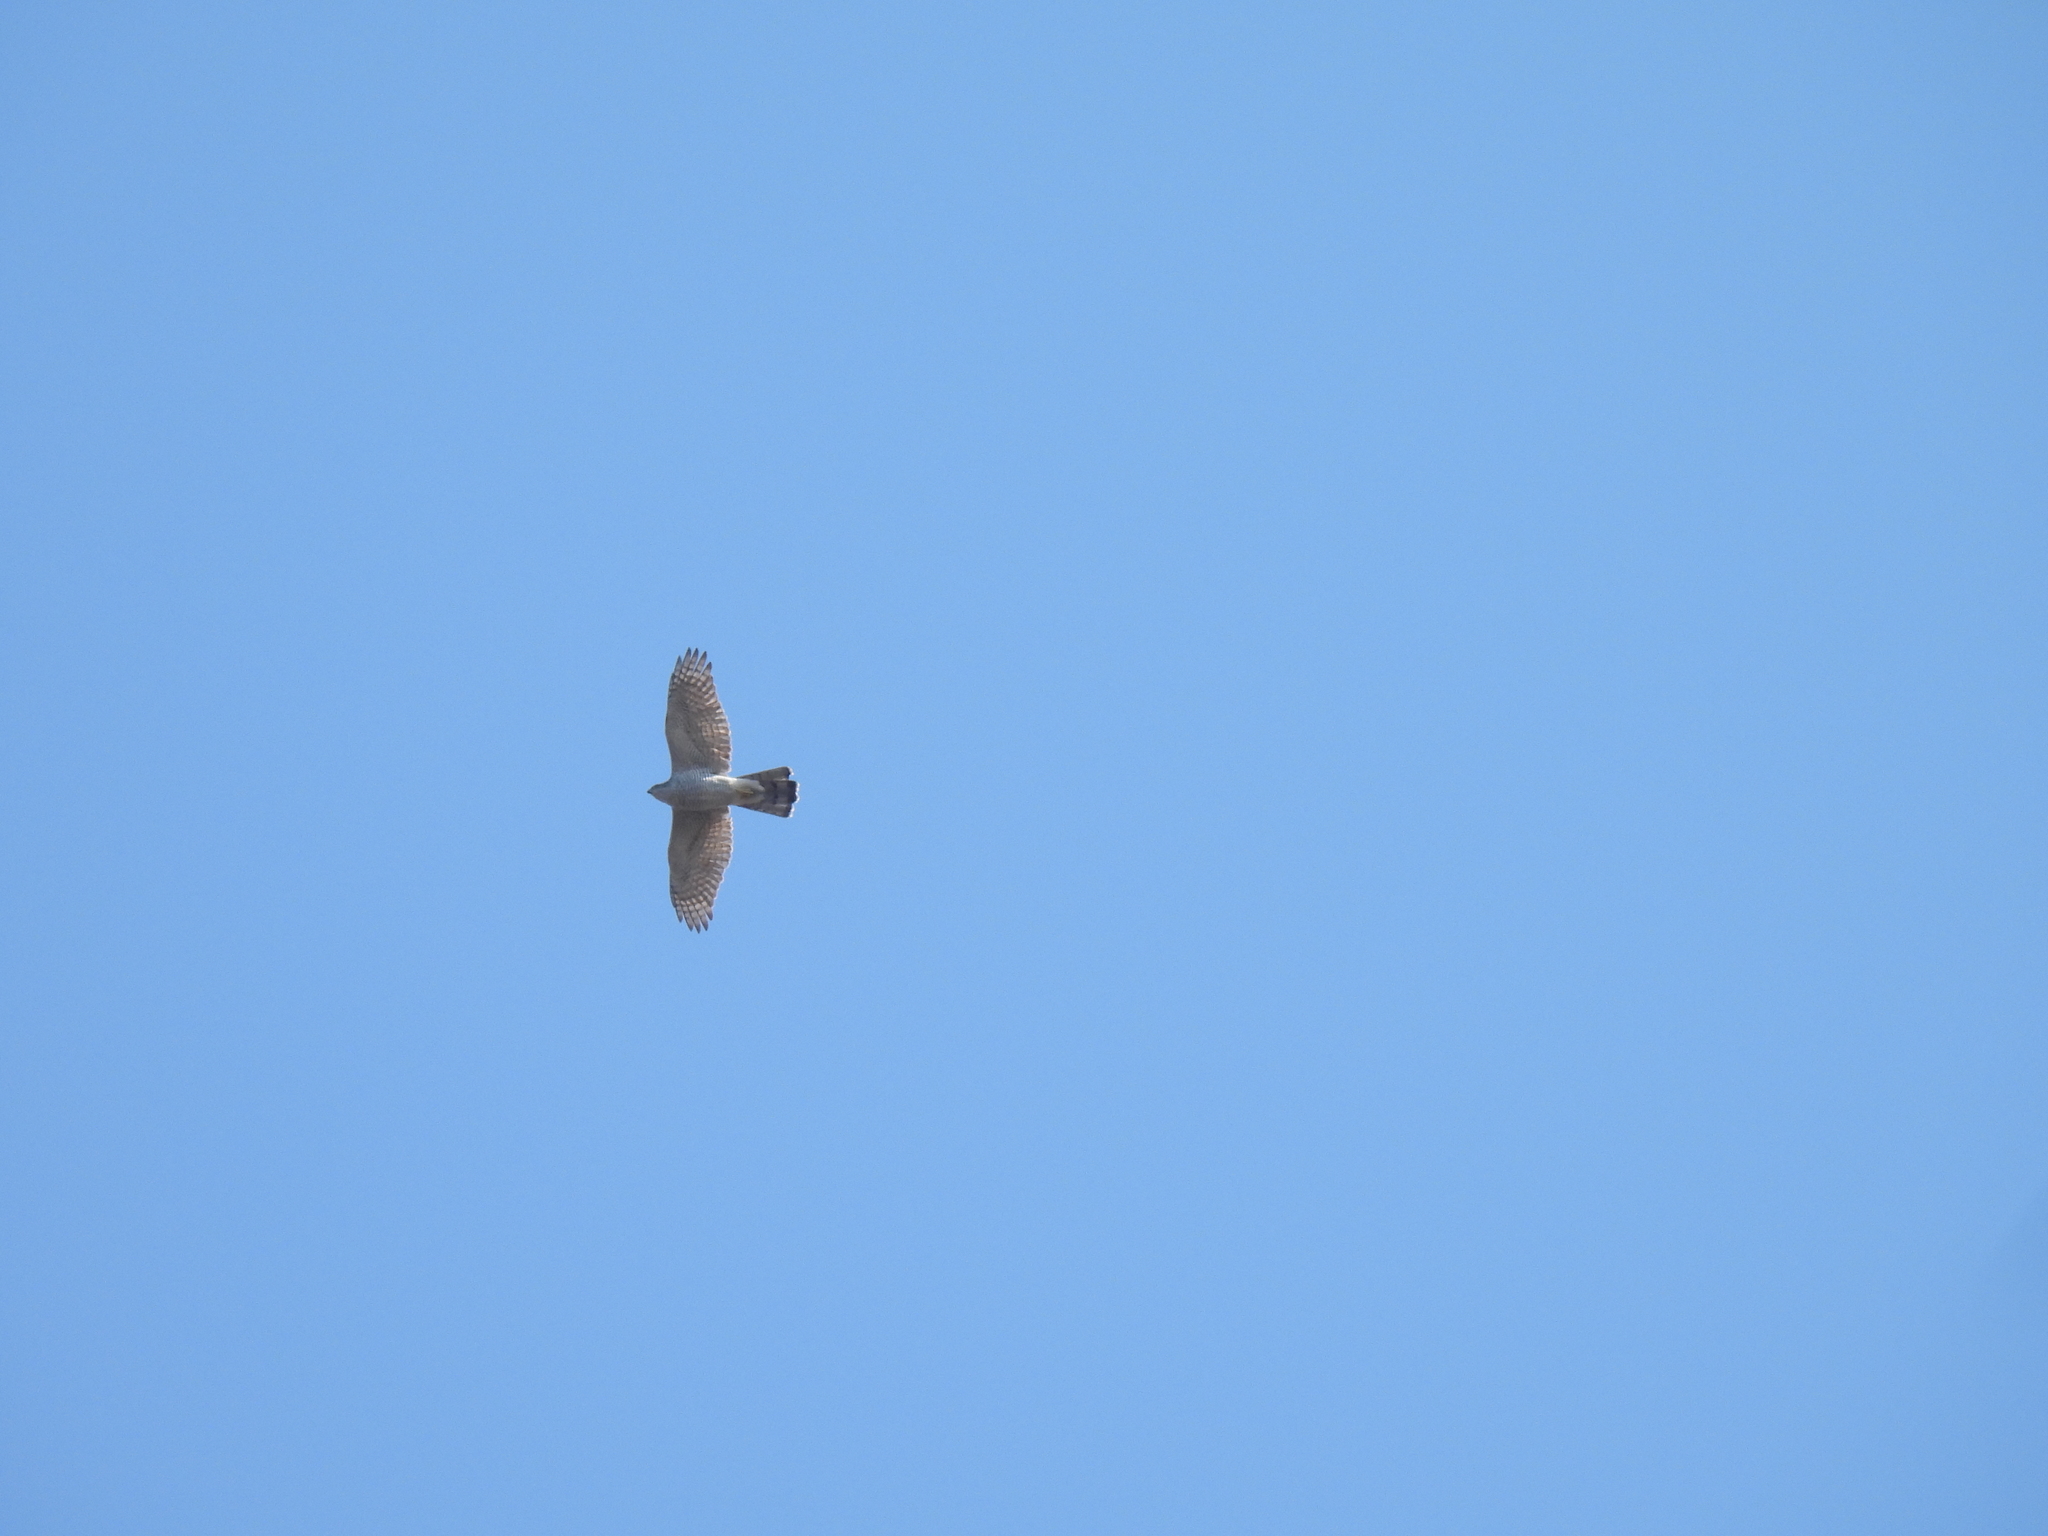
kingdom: Animalia
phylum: Chordata
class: Aves
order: Accipitriformes
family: Accipitridae
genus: Accipiter
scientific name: Accipiter gentilis
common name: Northern goshawk
